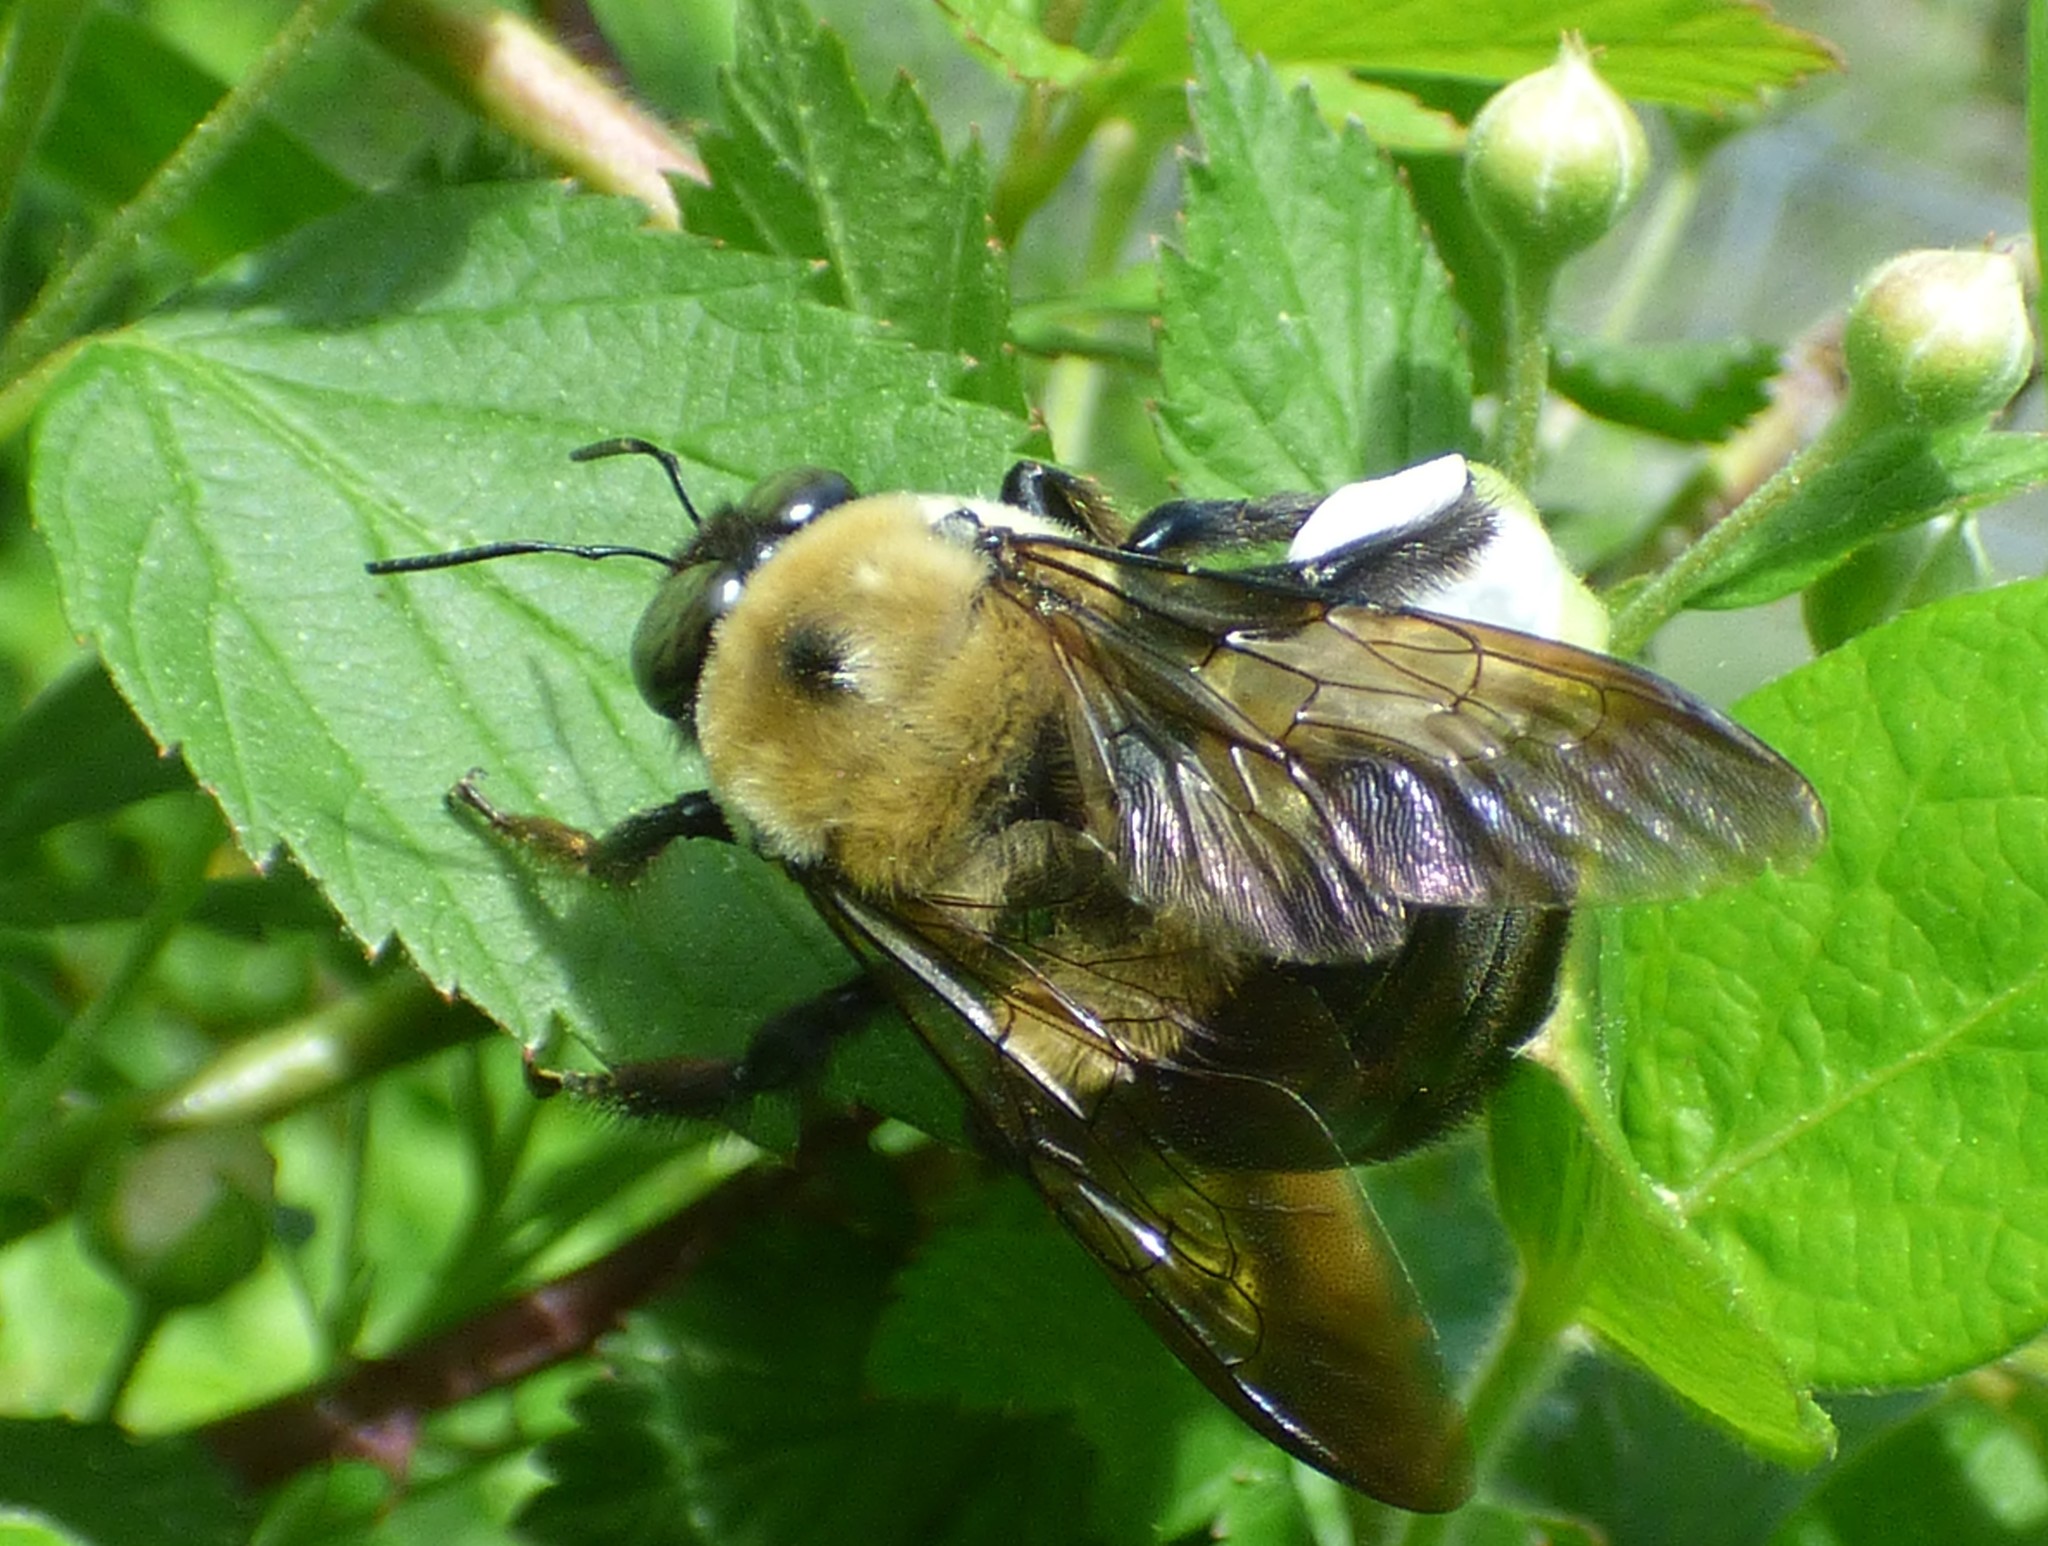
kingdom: Animalia
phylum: Arthropoda
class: Insecta
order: Hymenoptera
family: Apidae
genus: Xylocopa
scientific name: Xylocopa virginica
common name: Carpenter bee
